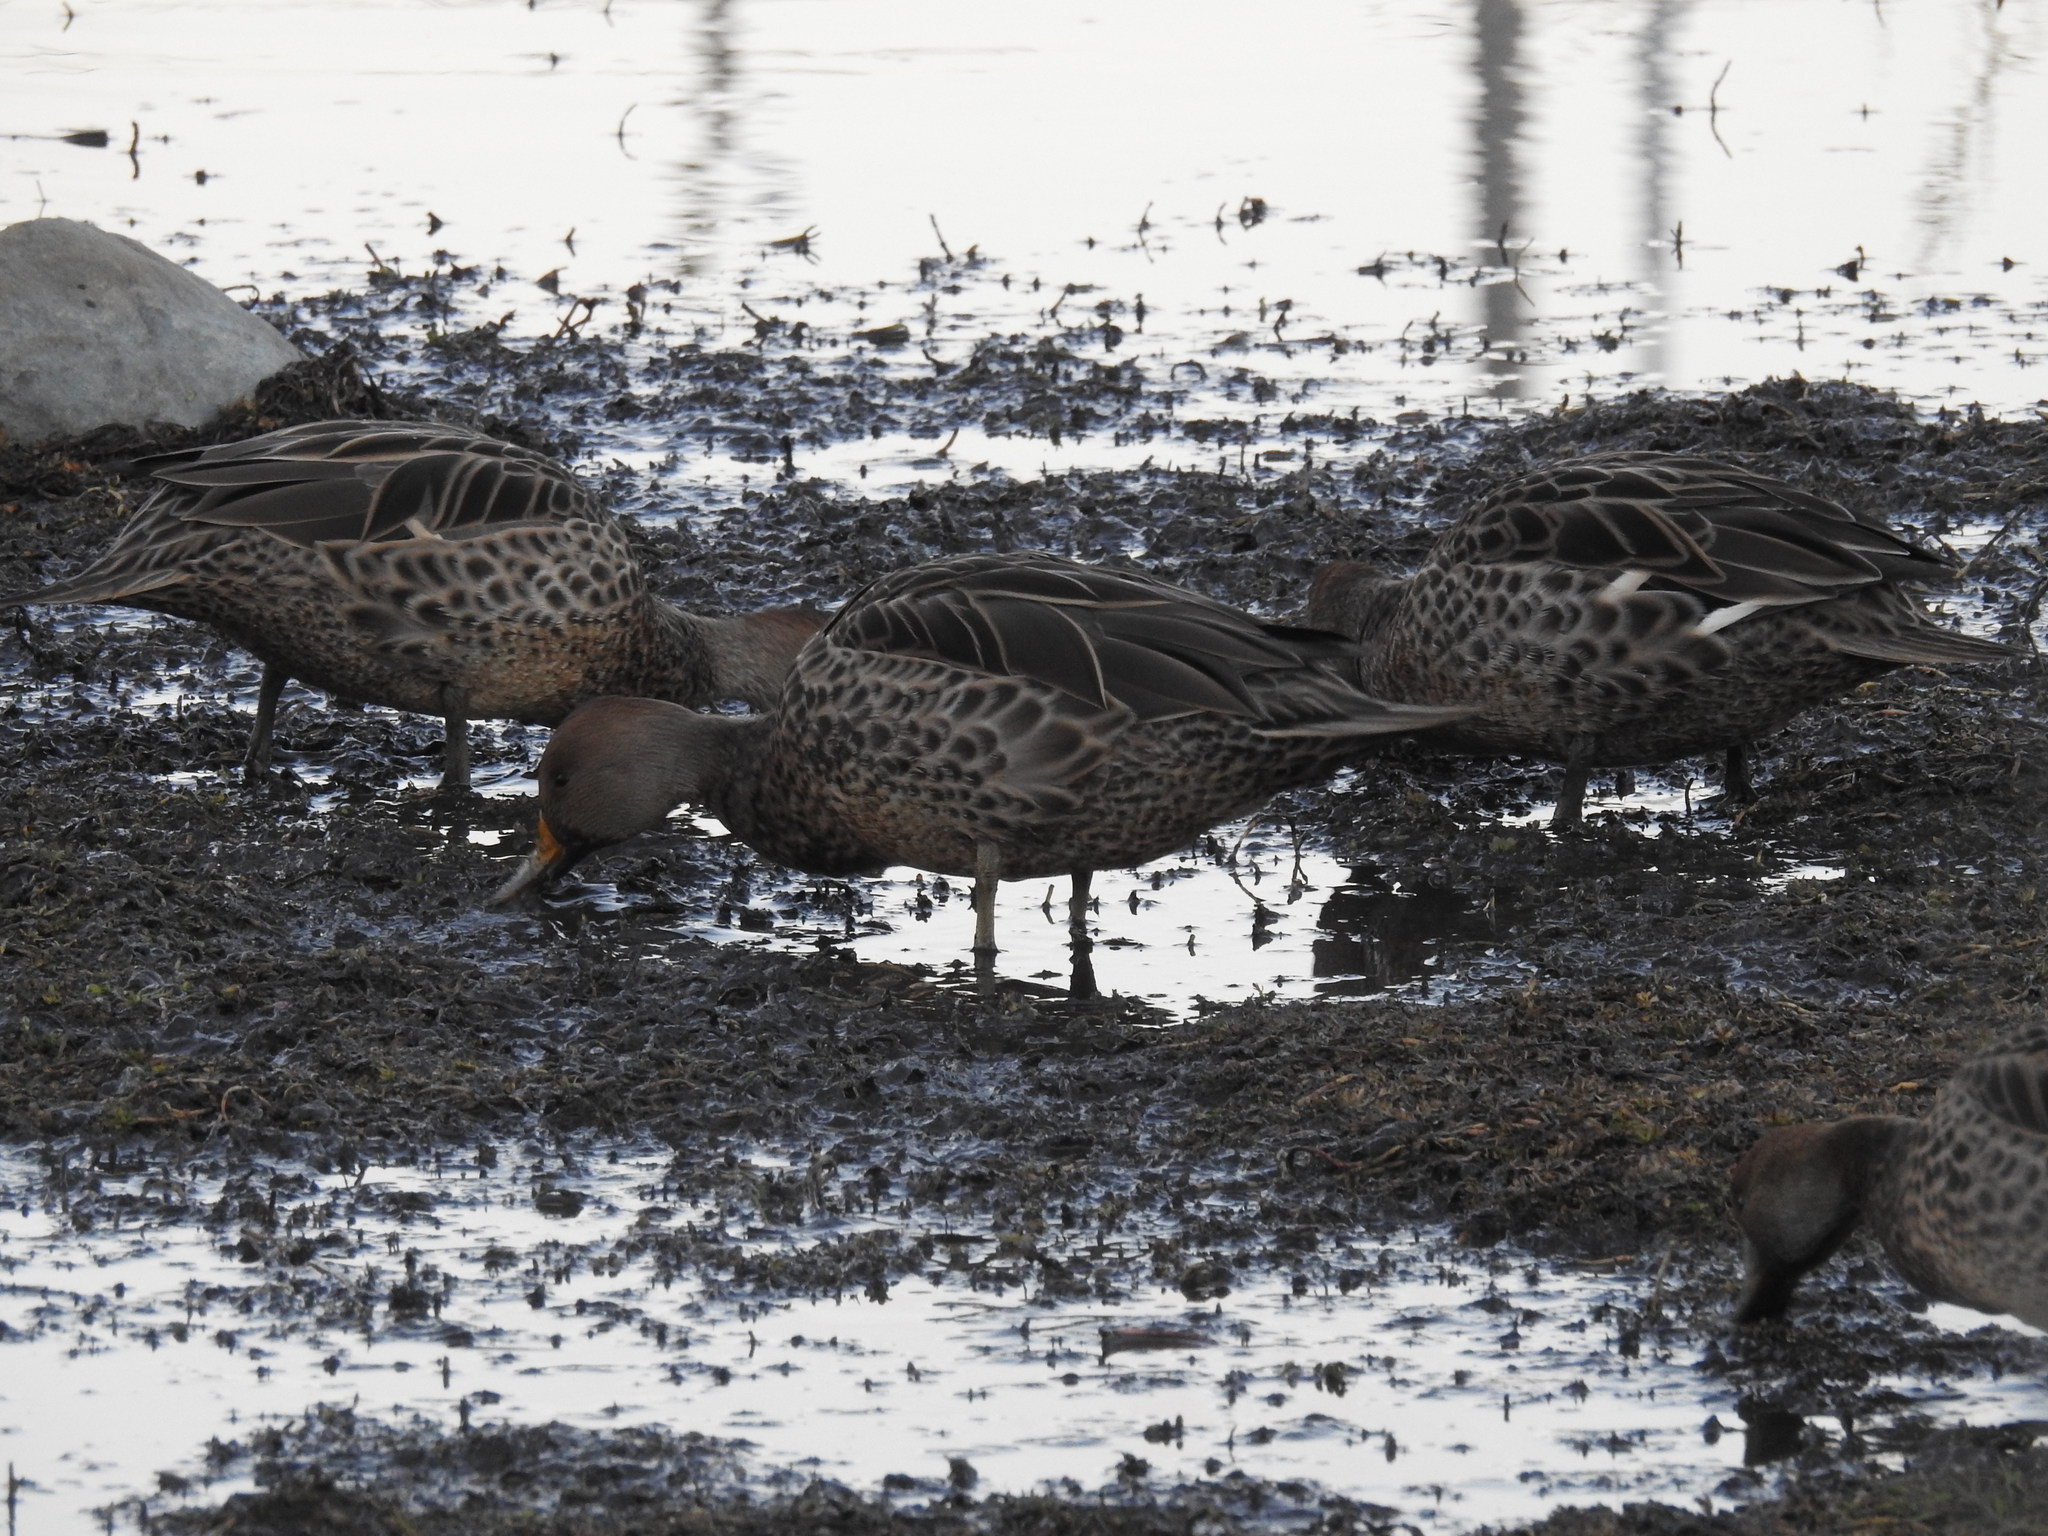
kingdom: Animalia
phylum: Chordata
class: Aves
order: Anseriformes
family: Anatidae
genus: Anas
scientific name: Anas georgica
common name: Yellow-billed pintail
